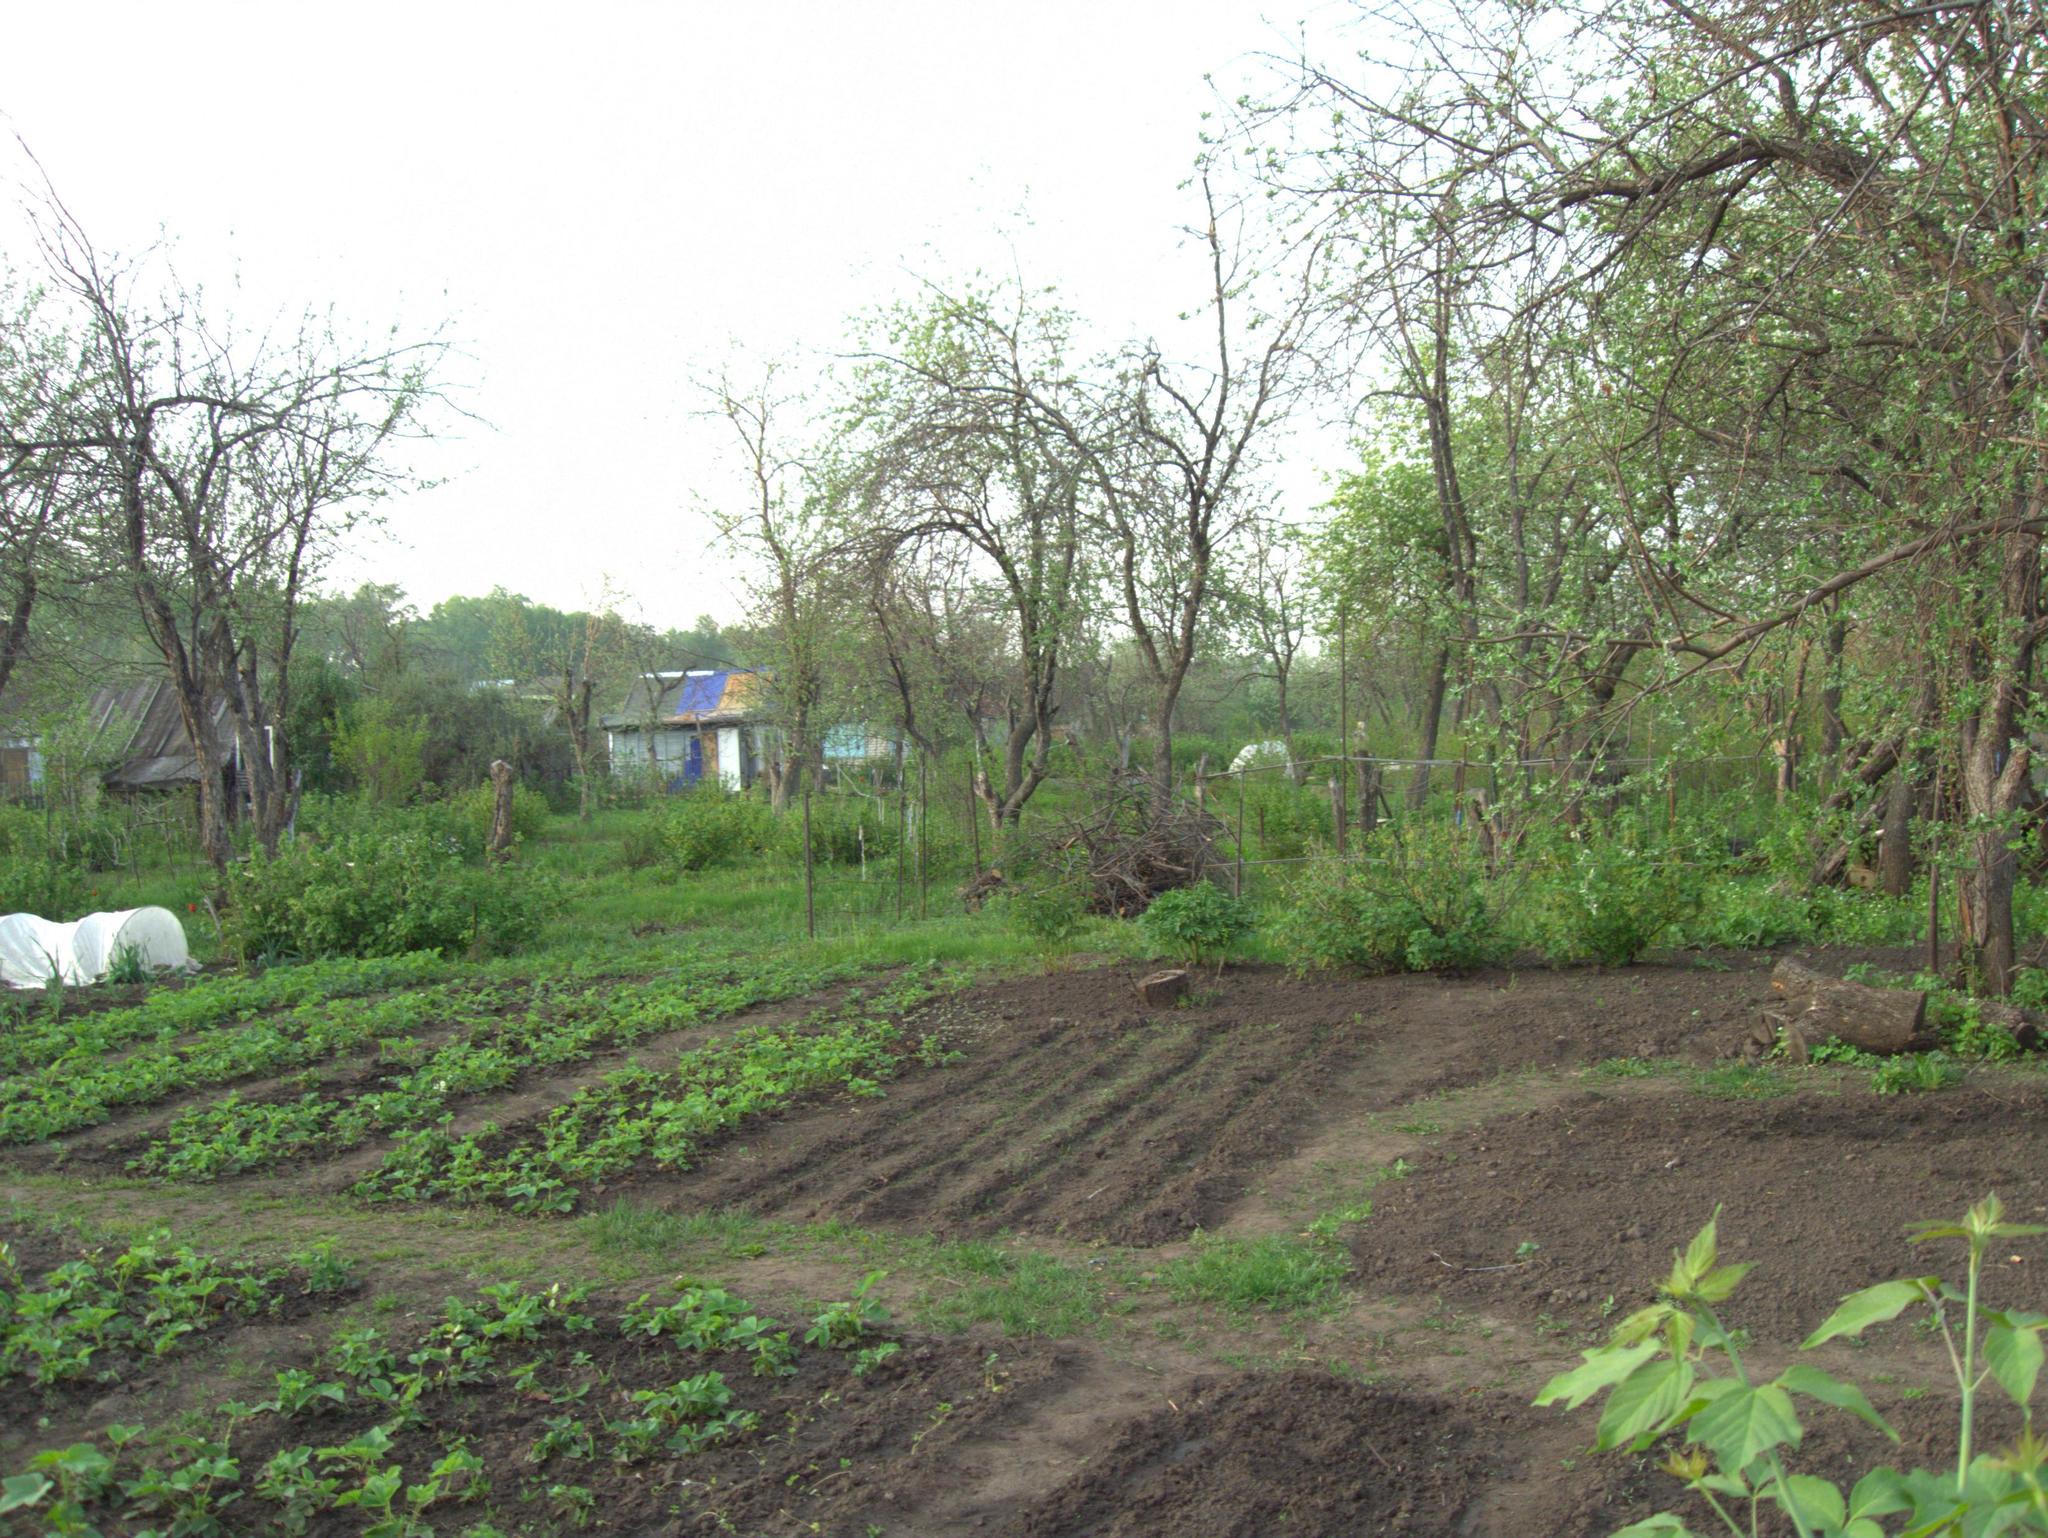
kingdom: Plantae
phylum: Tracheophyta
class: Magnoliopsida
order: Sapindales
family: Sapindaceae
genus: Acer
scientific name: Acer negundo
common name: Ashleaf maple
